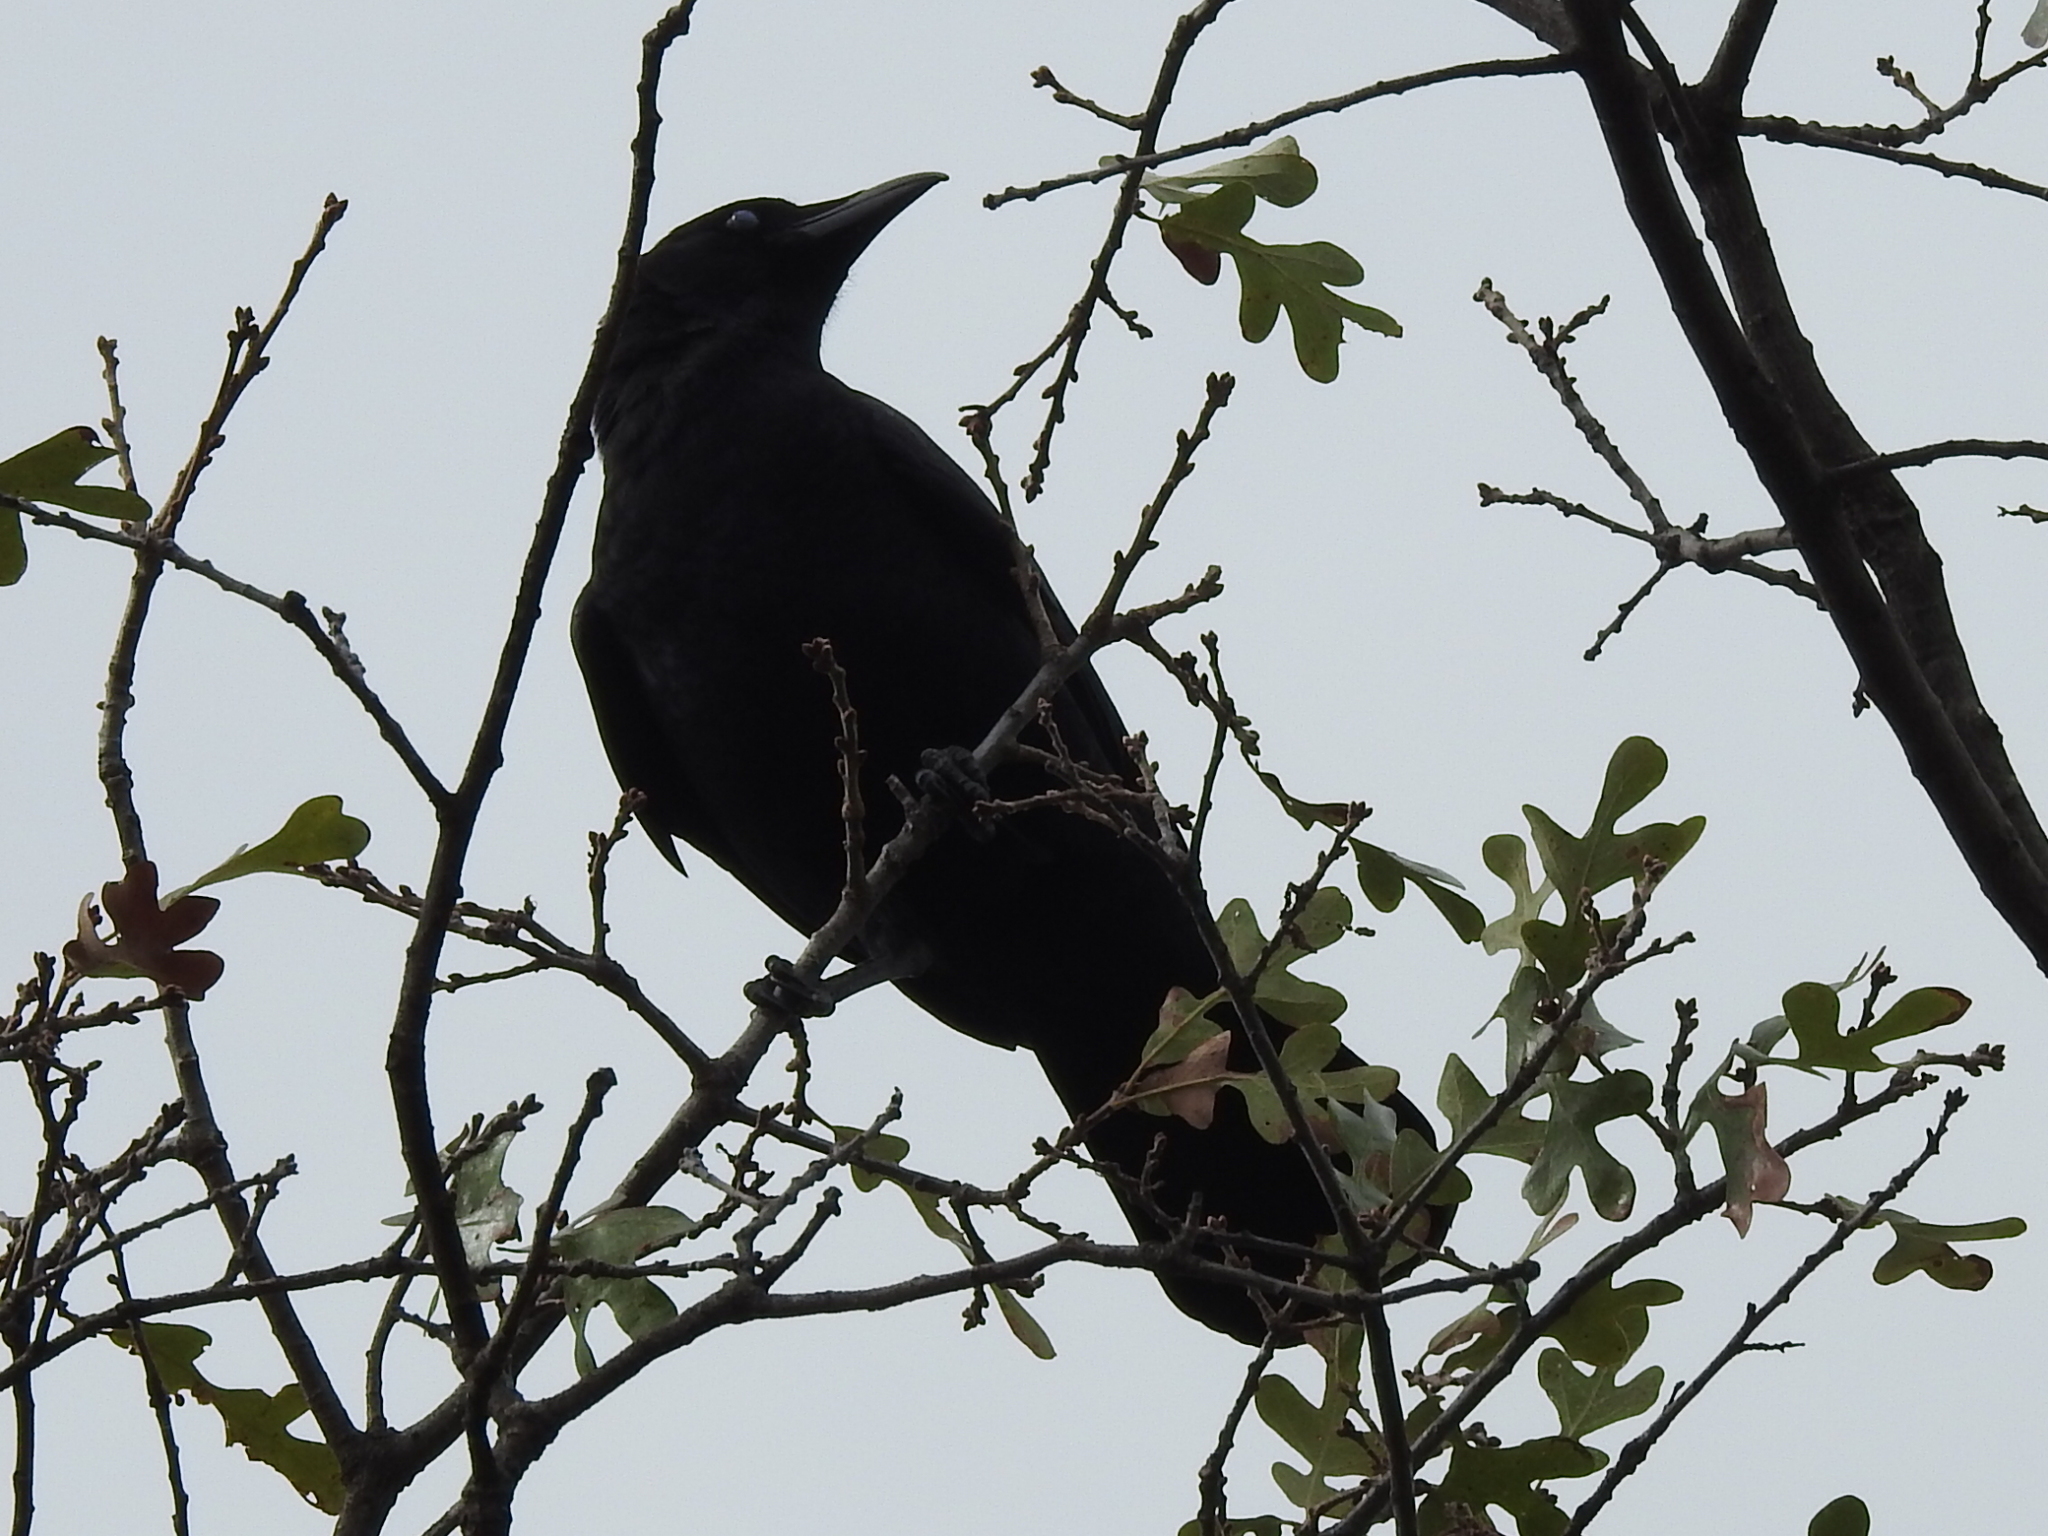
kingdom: Animalia
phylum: Chordata
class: Aves
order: Passeriformes
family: Corvidae
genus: Corvus
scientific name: Corvus brachyrhynchos
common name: American crow
